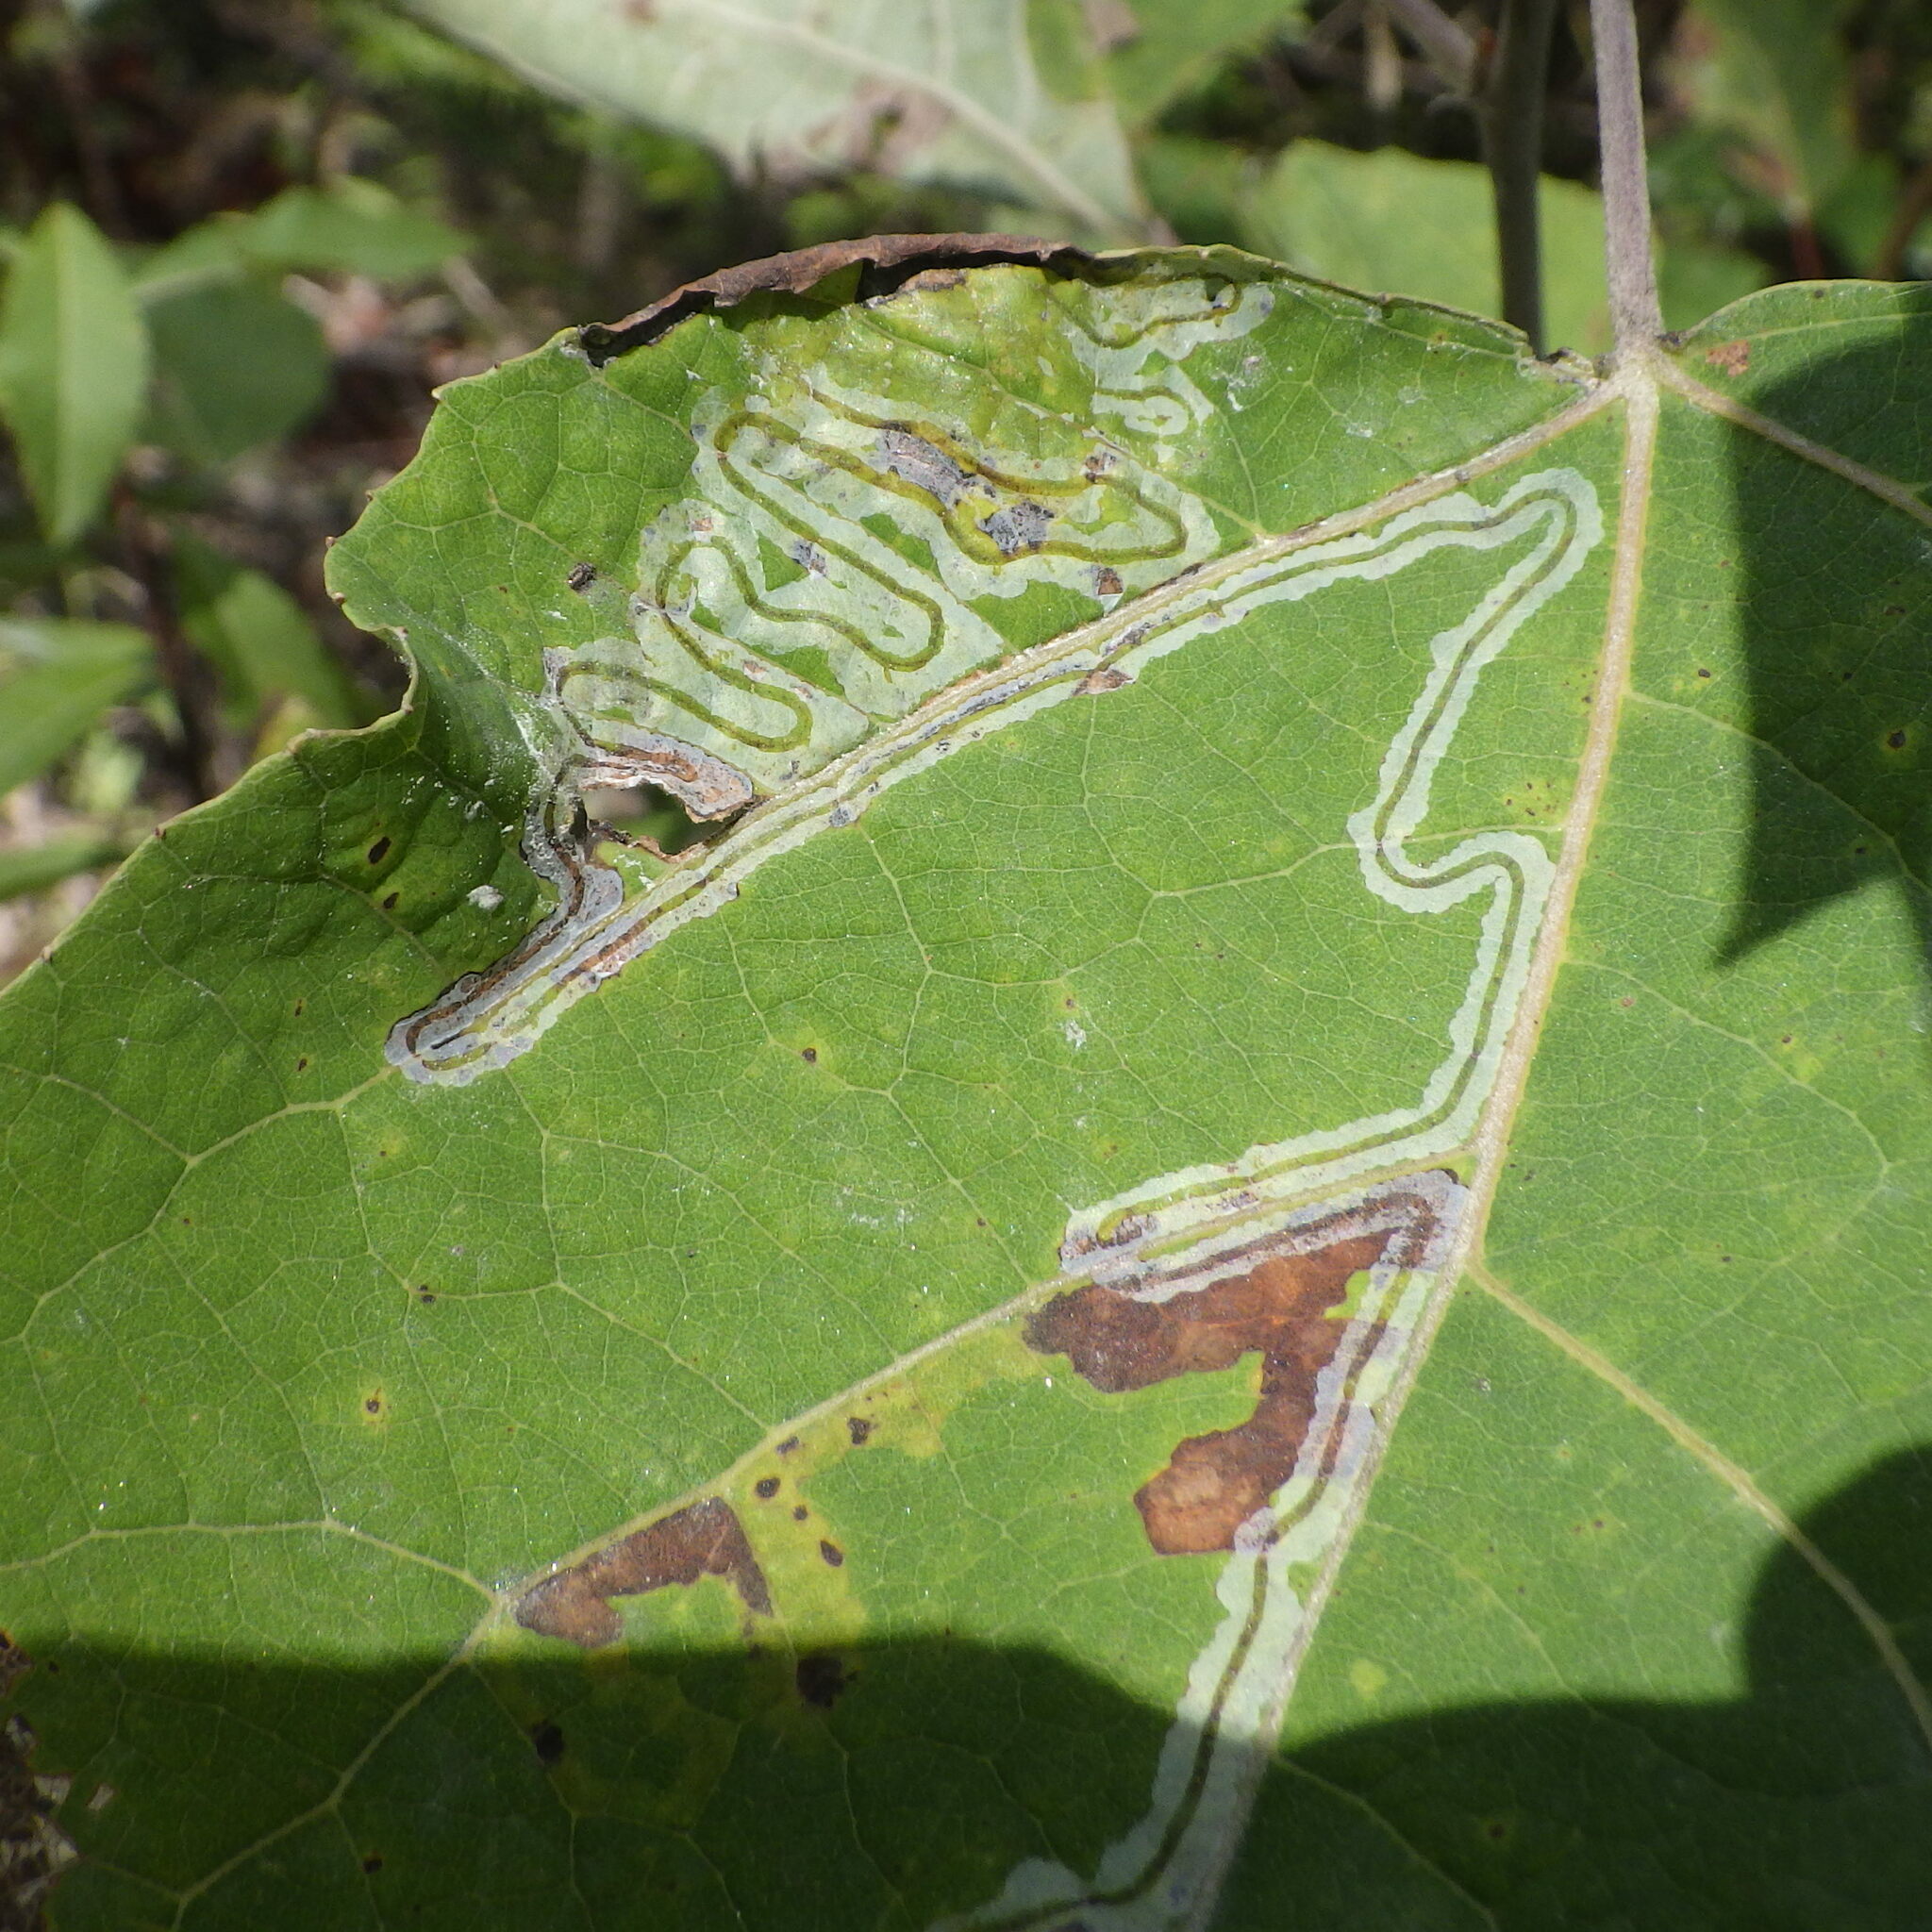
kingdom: Animalia
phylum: Arthropoda
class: Insecta
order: Lepidoptera
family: Gracillariidae
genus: Phyllocnistis
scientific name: Phyllocnistis populiella
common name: Aspen serpentine leafminer moth
